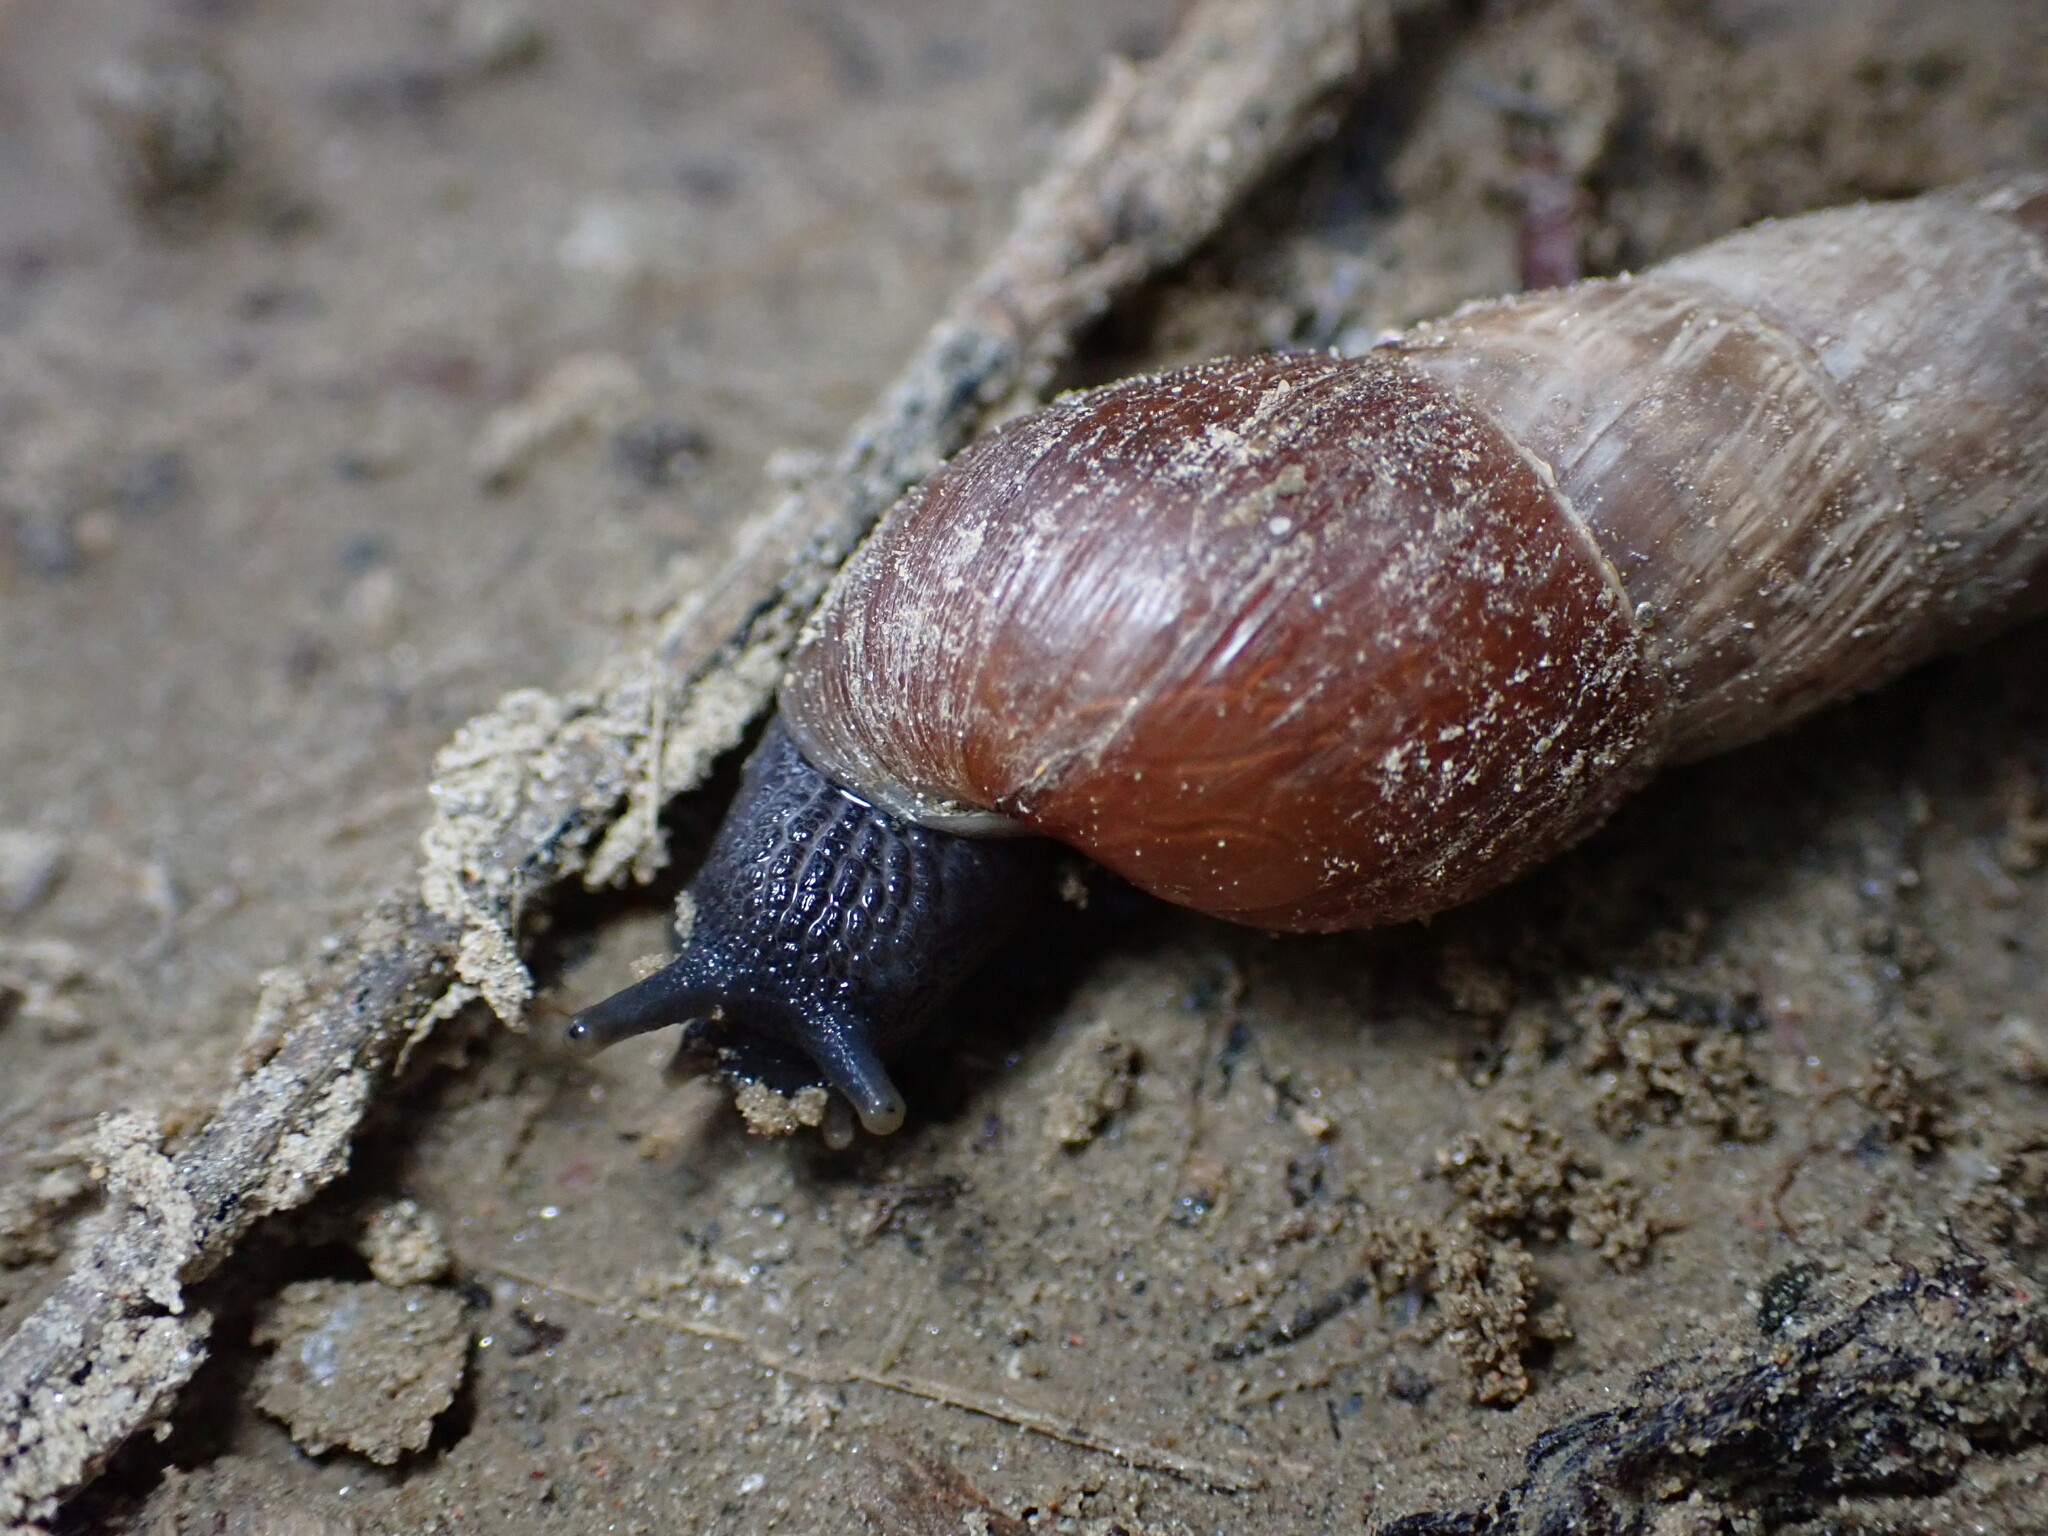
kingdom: Animalia
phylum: Mollusca
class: Gastropoda
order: Stylommatophora
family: Achatinidae
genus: Rumina
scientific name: Rumina decollata
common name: Decollate snail
